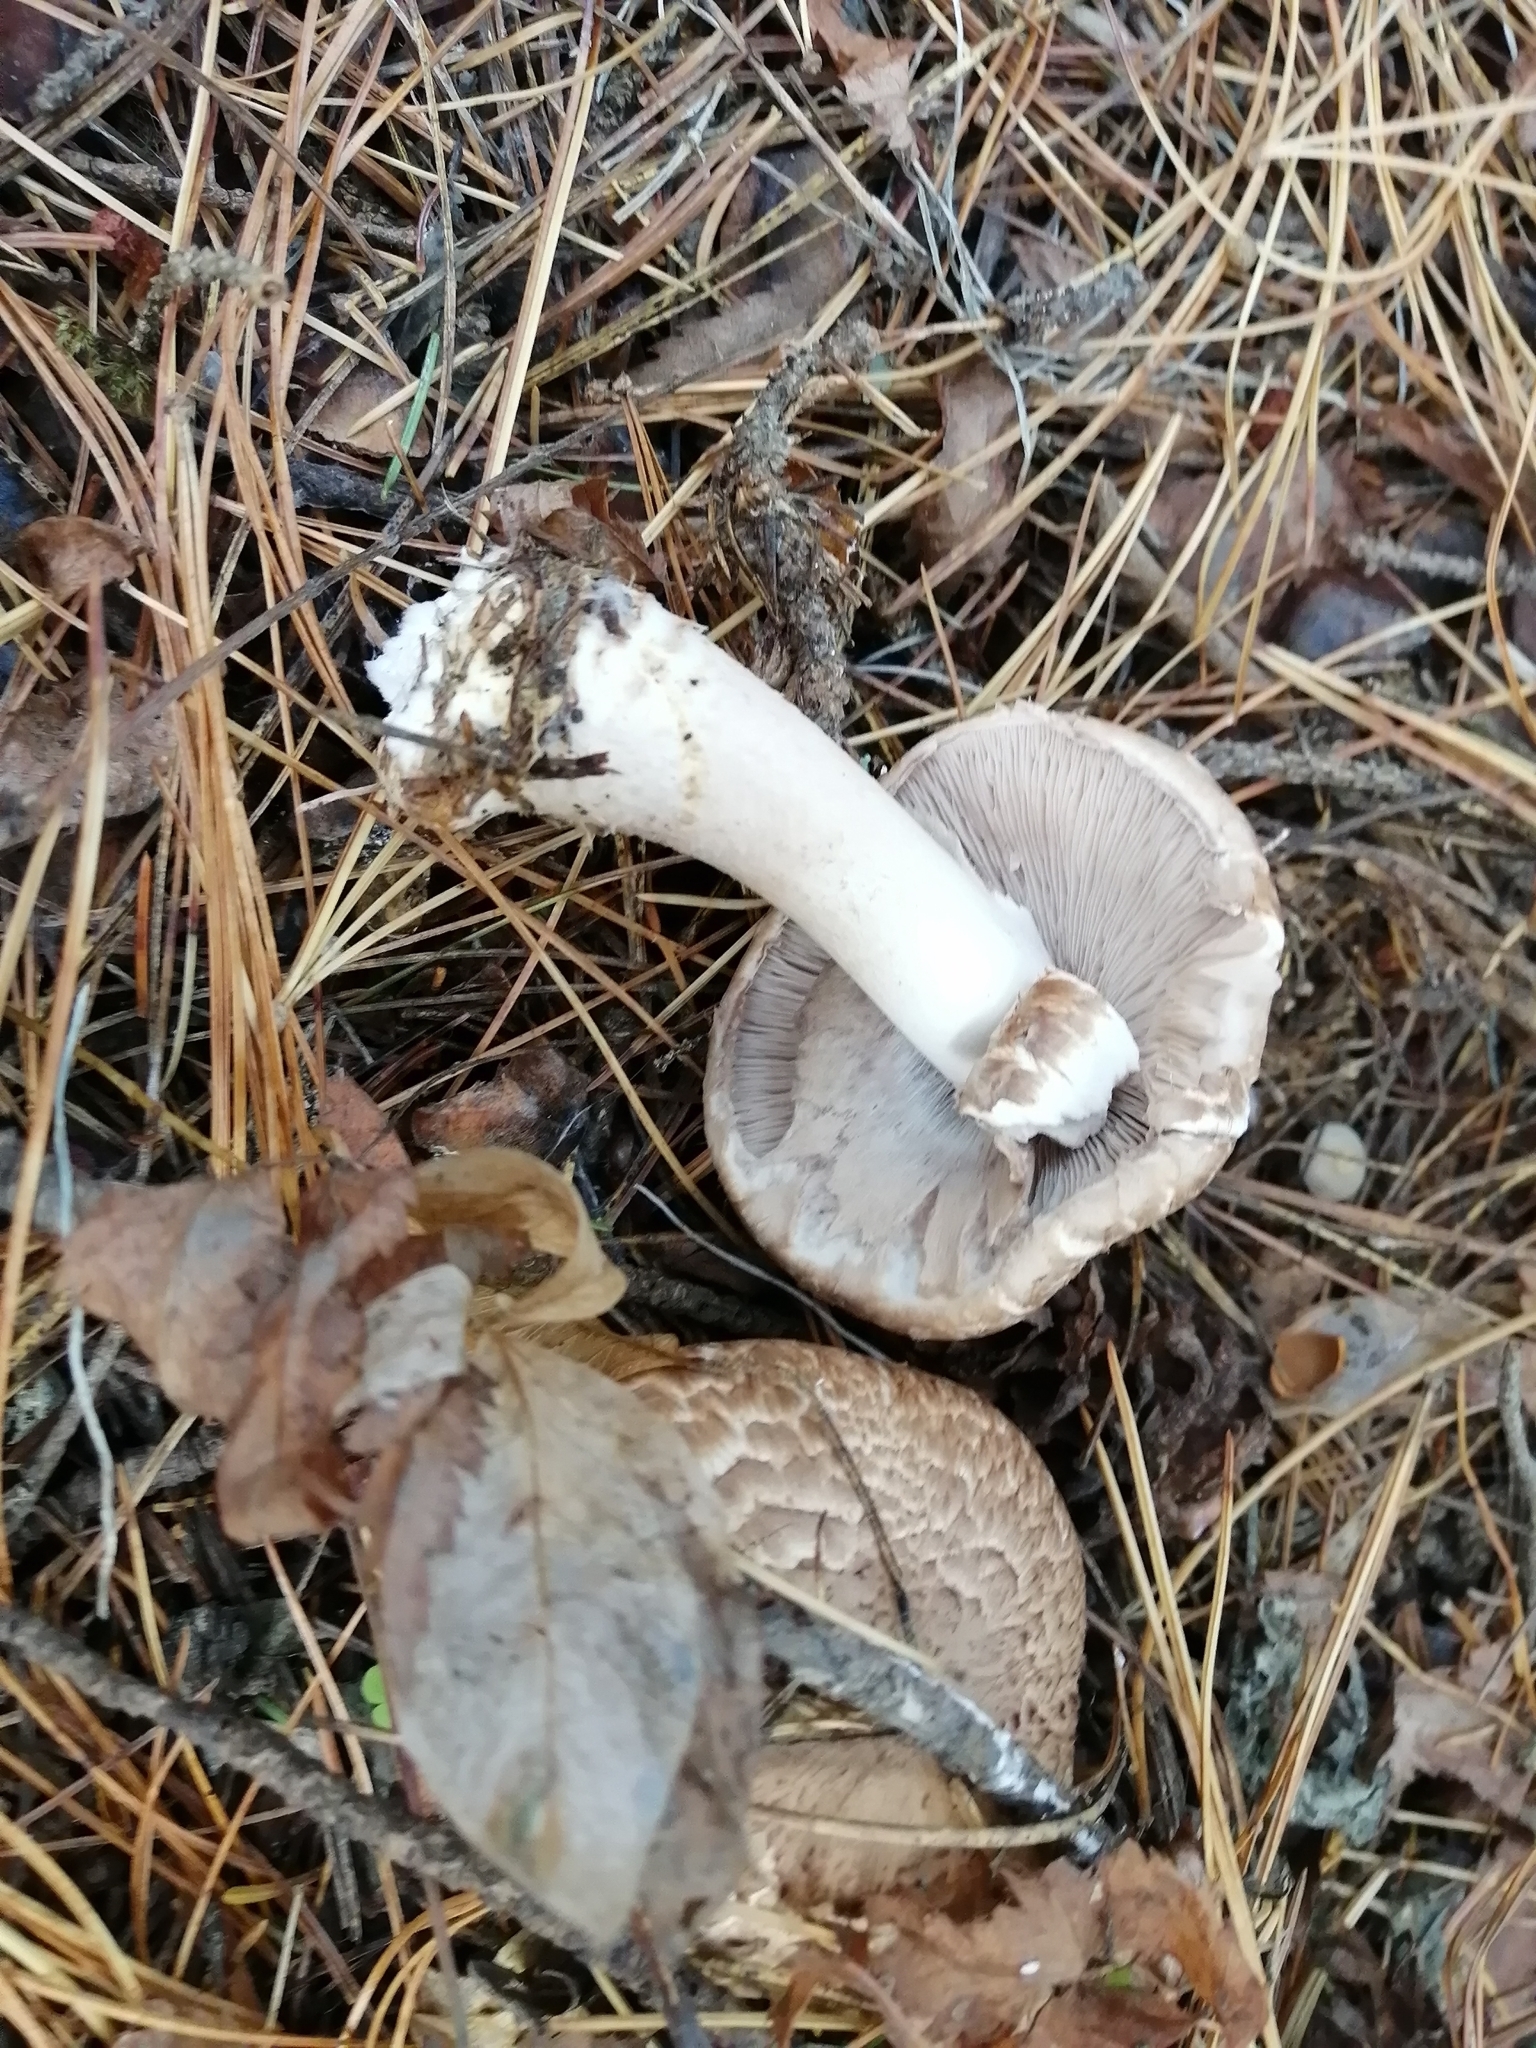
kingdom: Fungi
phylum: Basidiomycota
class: Agaricomycetes
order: Agaricales
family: Agaricaceae
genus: Agaricus
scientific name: Agaricus sylvaticus
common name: Blushing wood mushroom
